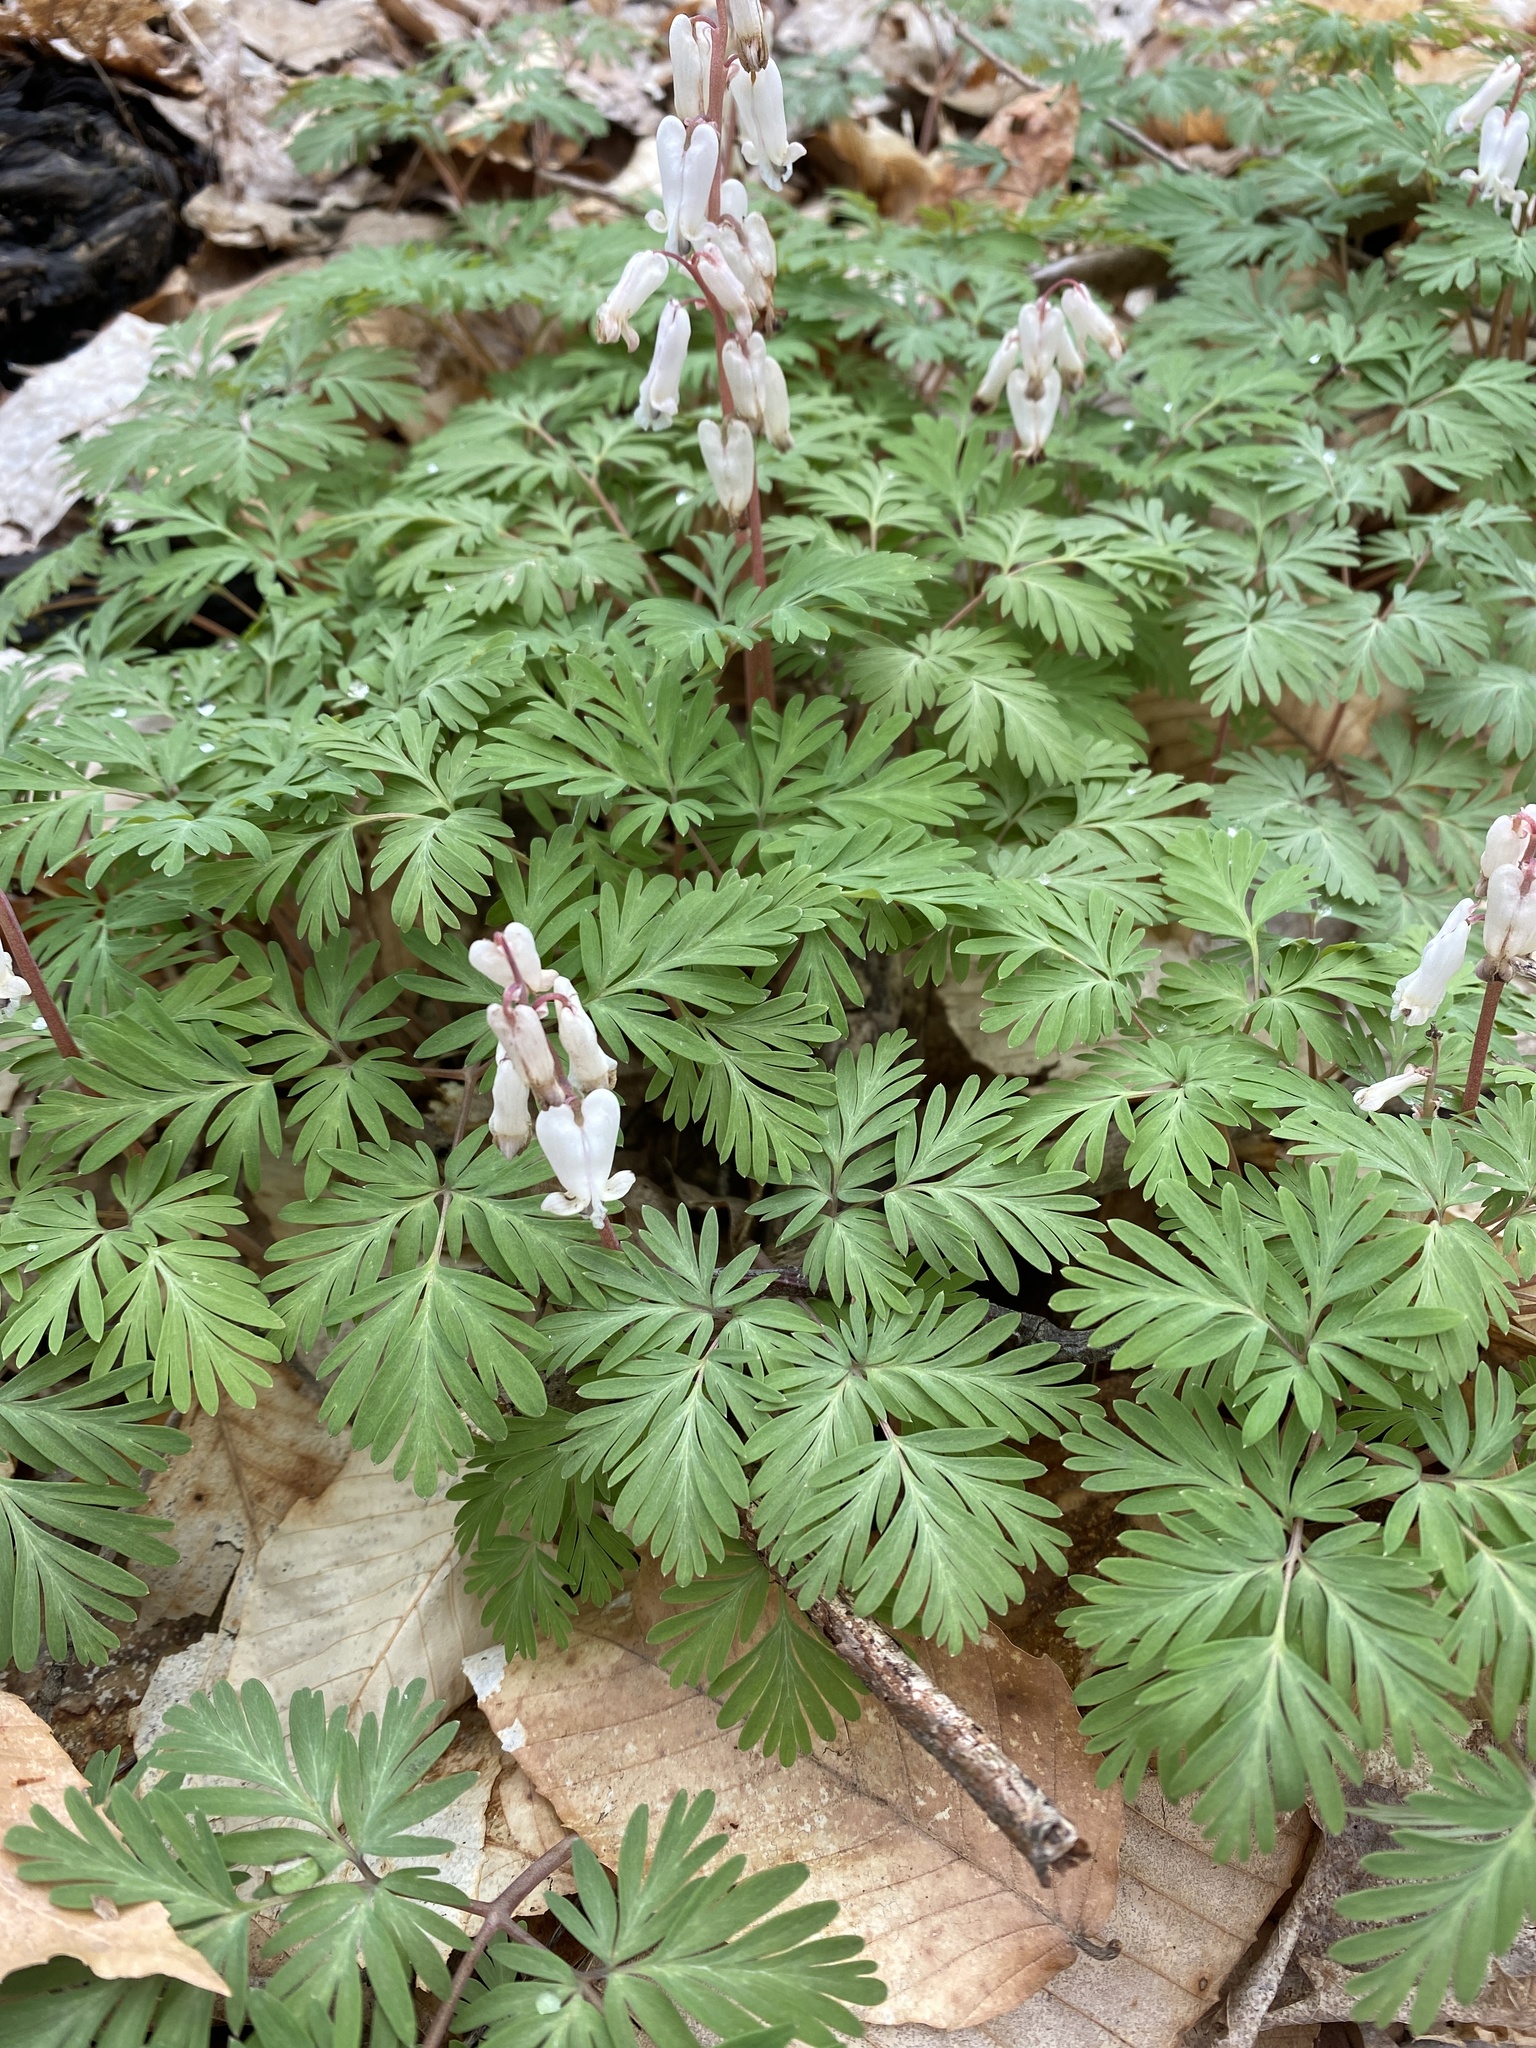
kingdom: Plantae
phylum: Tracheophyta
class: Magnoliopsida
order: Ranunculales
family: Papaveraceae
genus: Dicentra
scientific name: Dicentra canadensis
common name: Squirrel-corn
